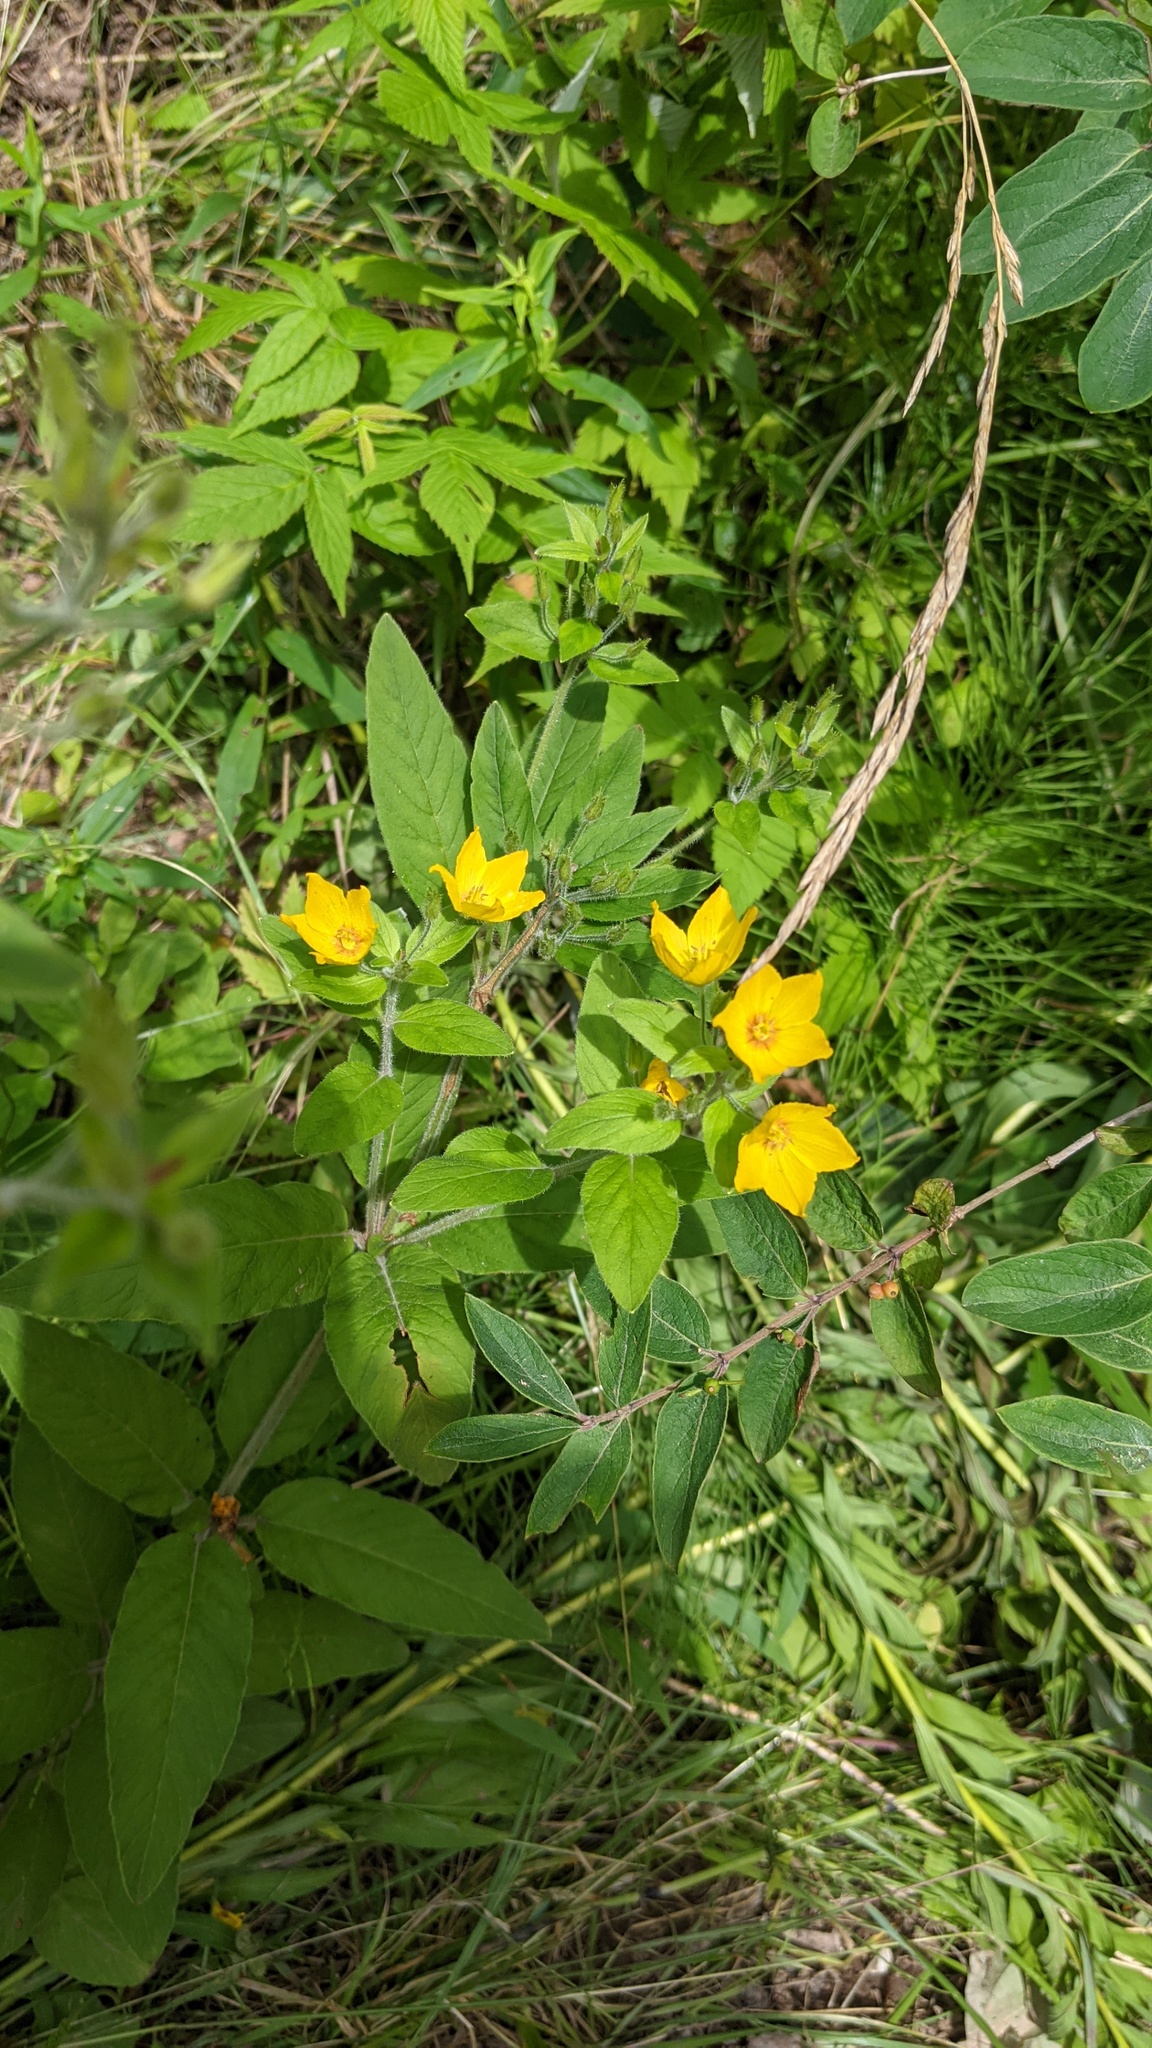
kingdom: Plantae
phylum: Tracheophyta
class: Magnoliopsida
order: Ericales
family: Primulaceae
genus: Lysimachia
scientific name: Lysimachia punctata
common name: Dotted loosestrife
